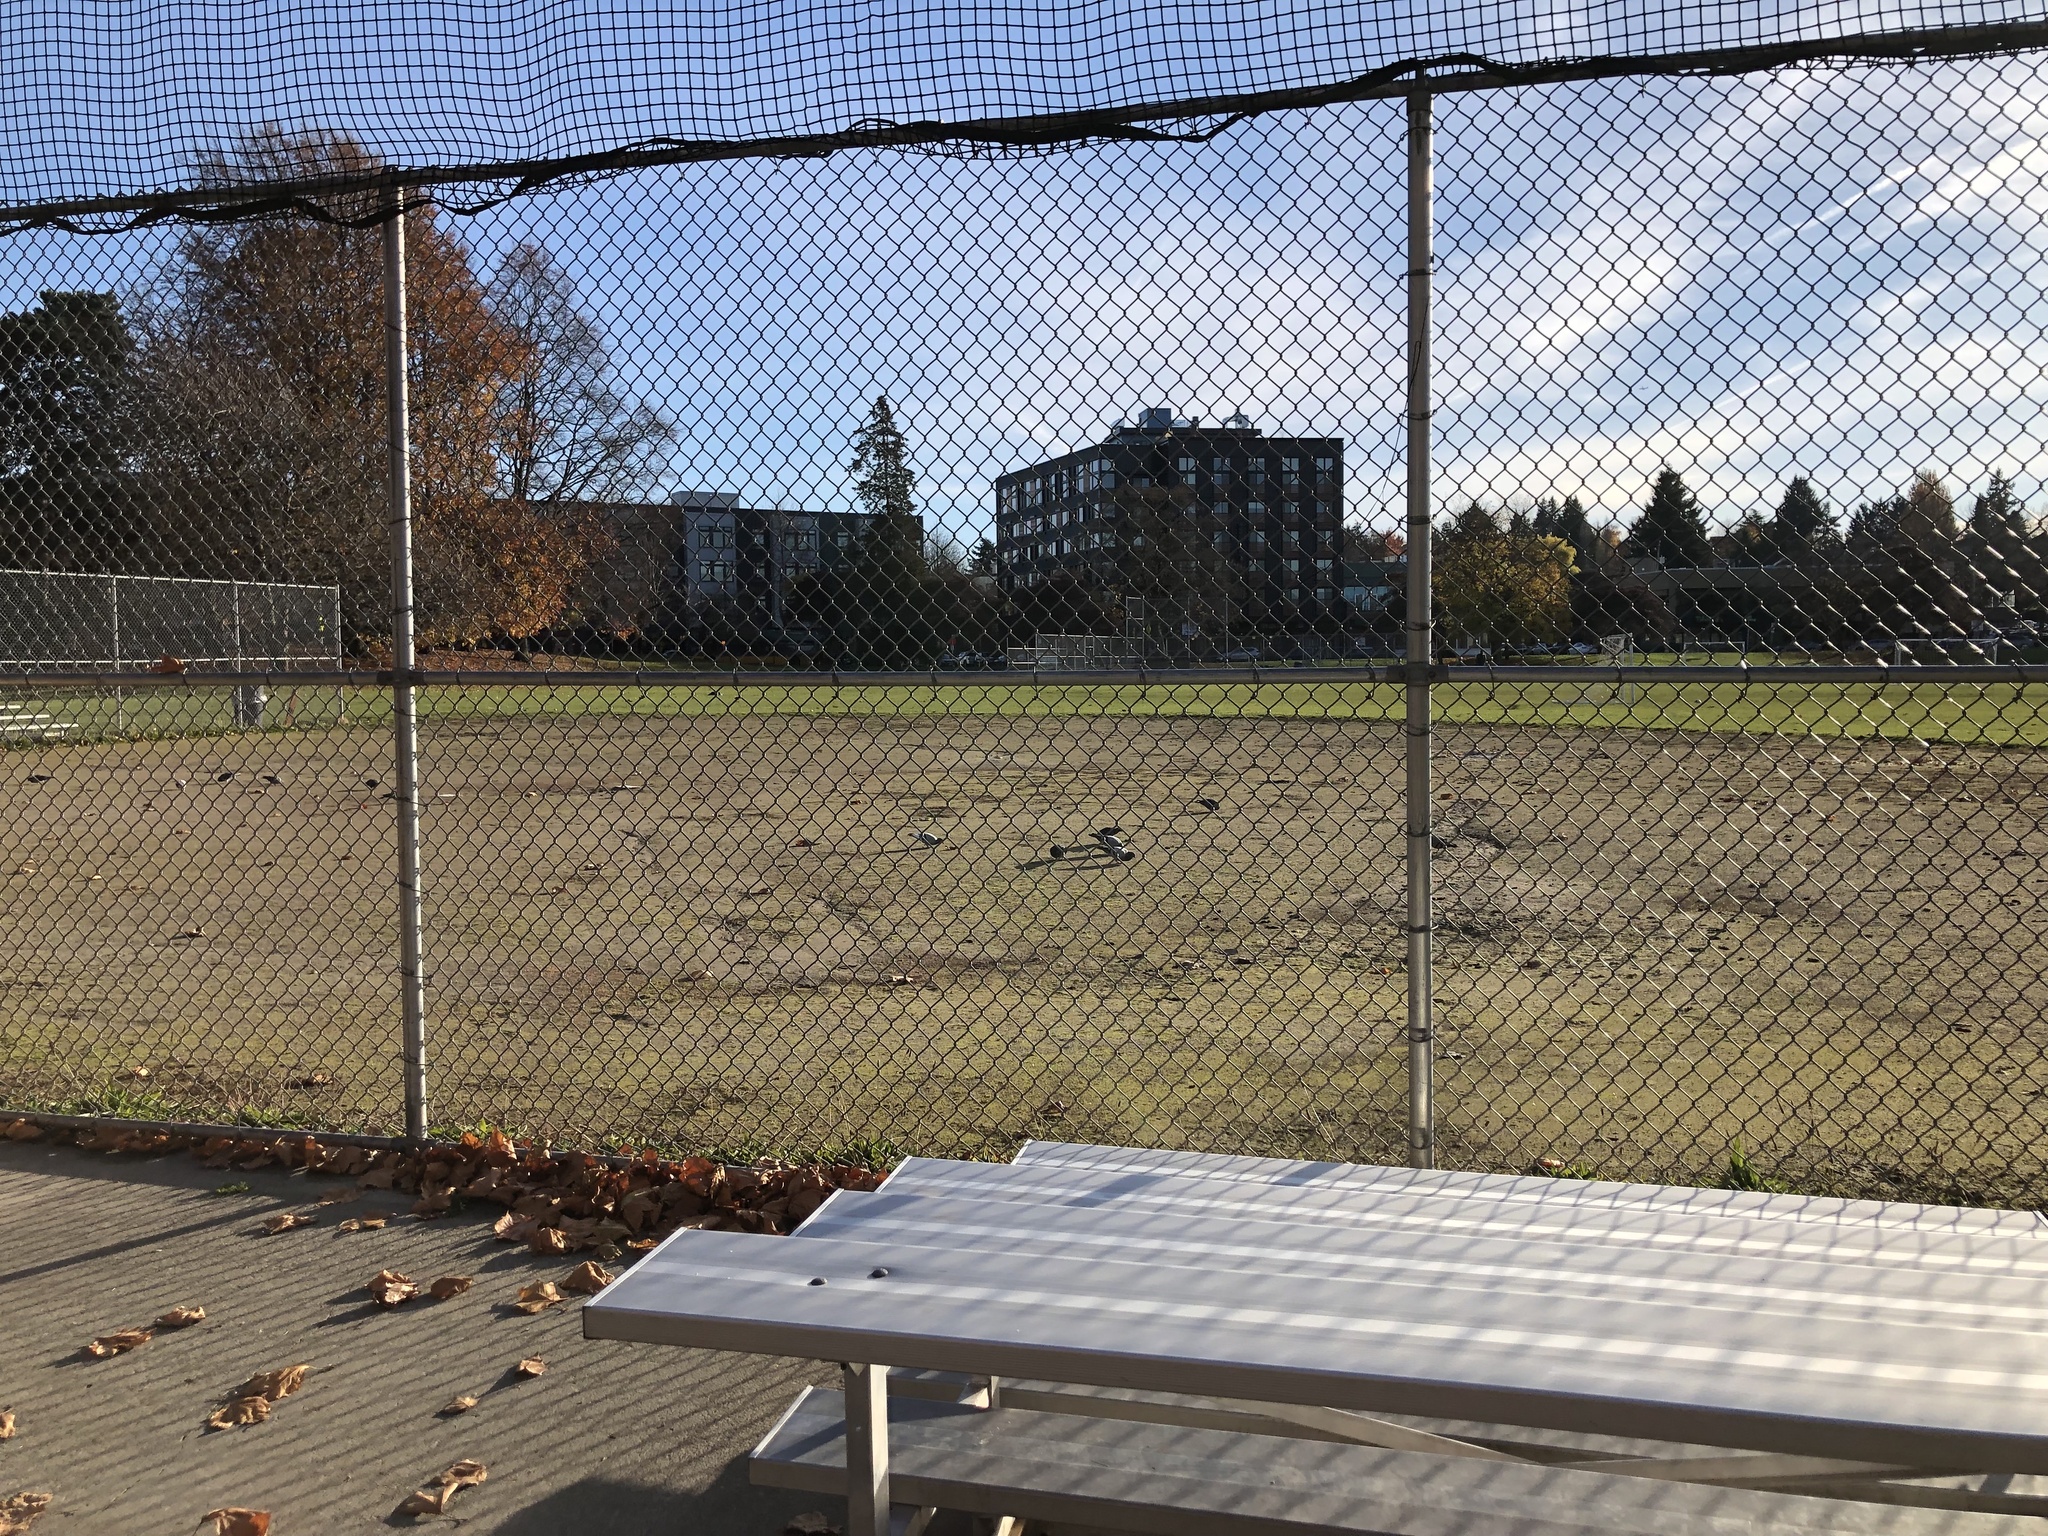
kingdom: Animalia
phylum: Chordata
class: Aves
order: Columbiformes
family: Columbidae
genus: Columba
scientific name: Columba livia
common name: Rock pigeon
